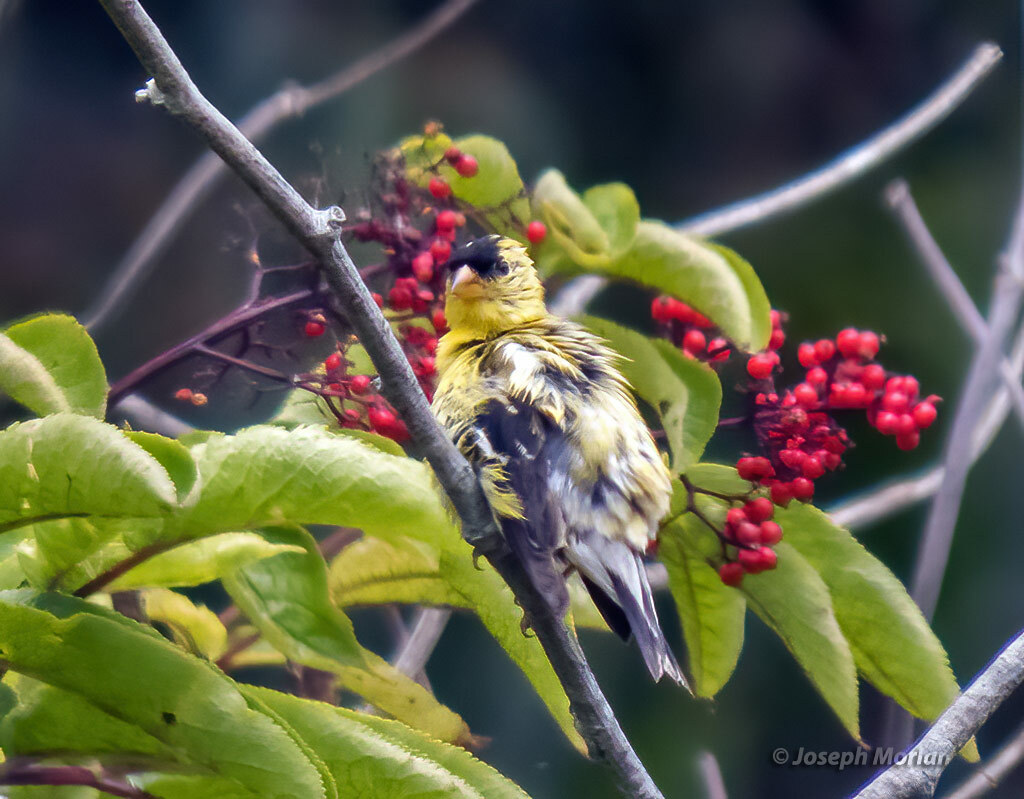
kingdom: Animalia
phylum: Chordata
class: Aves
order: Passeriformes
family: Fringillidae
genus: Spinus
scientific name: Spinus tristis
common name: American goldfinch
